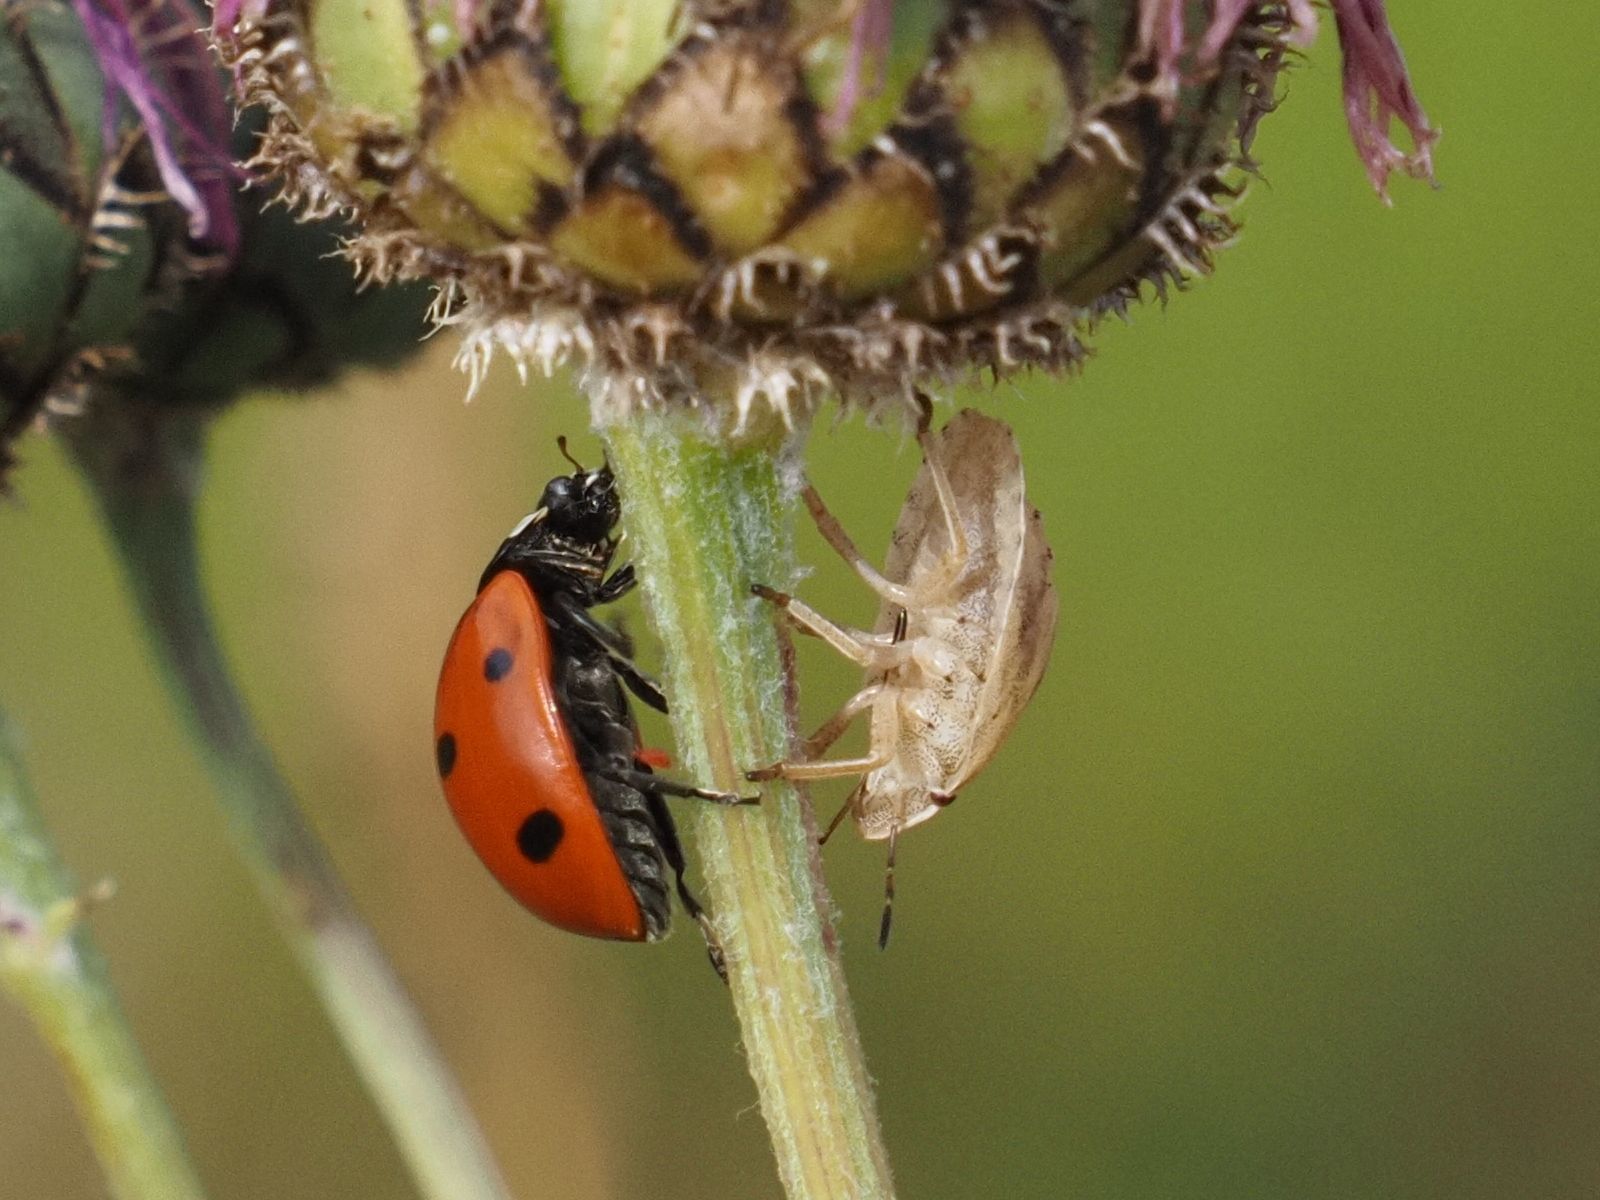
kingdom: Animalia
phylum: Arthropoda
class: Insecta
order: Coleoptera
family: Coccinellidae
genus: Coccinella
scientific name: Coccinella septempunctata
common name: Sevenspotted lady beetle
